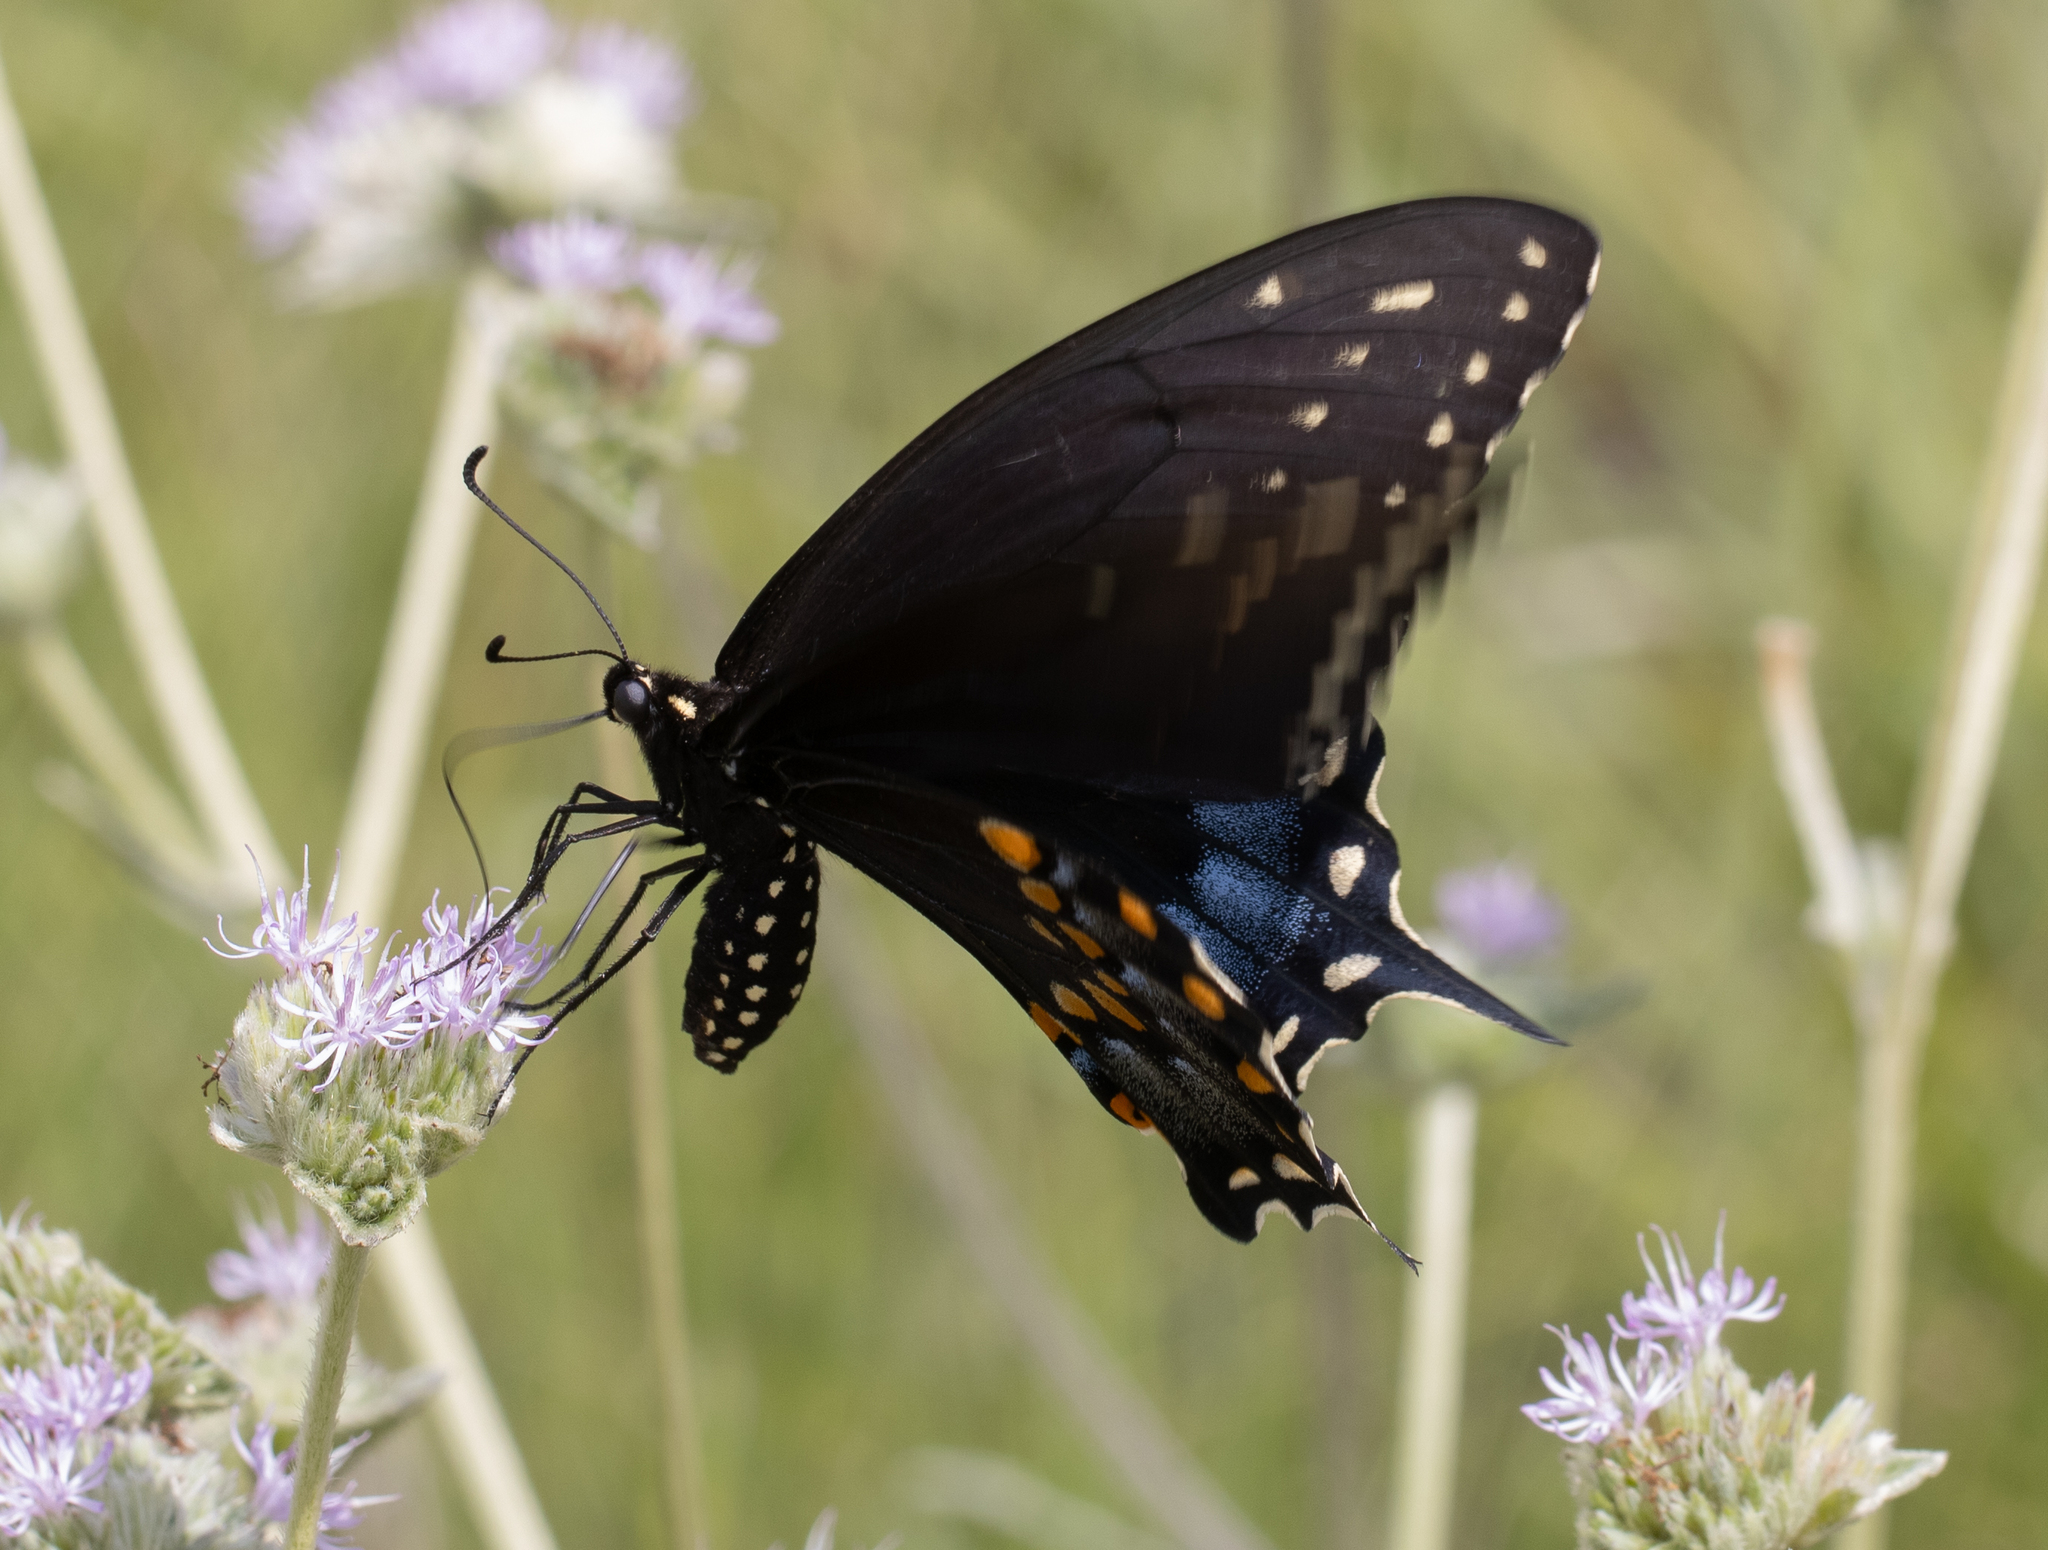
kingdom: Animalia
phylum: Arthropoda
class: Insecta
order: Lepidoptera
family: Papilionidae
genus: Papilio
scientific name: Papilio polyxenes
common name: Black swallowtail
